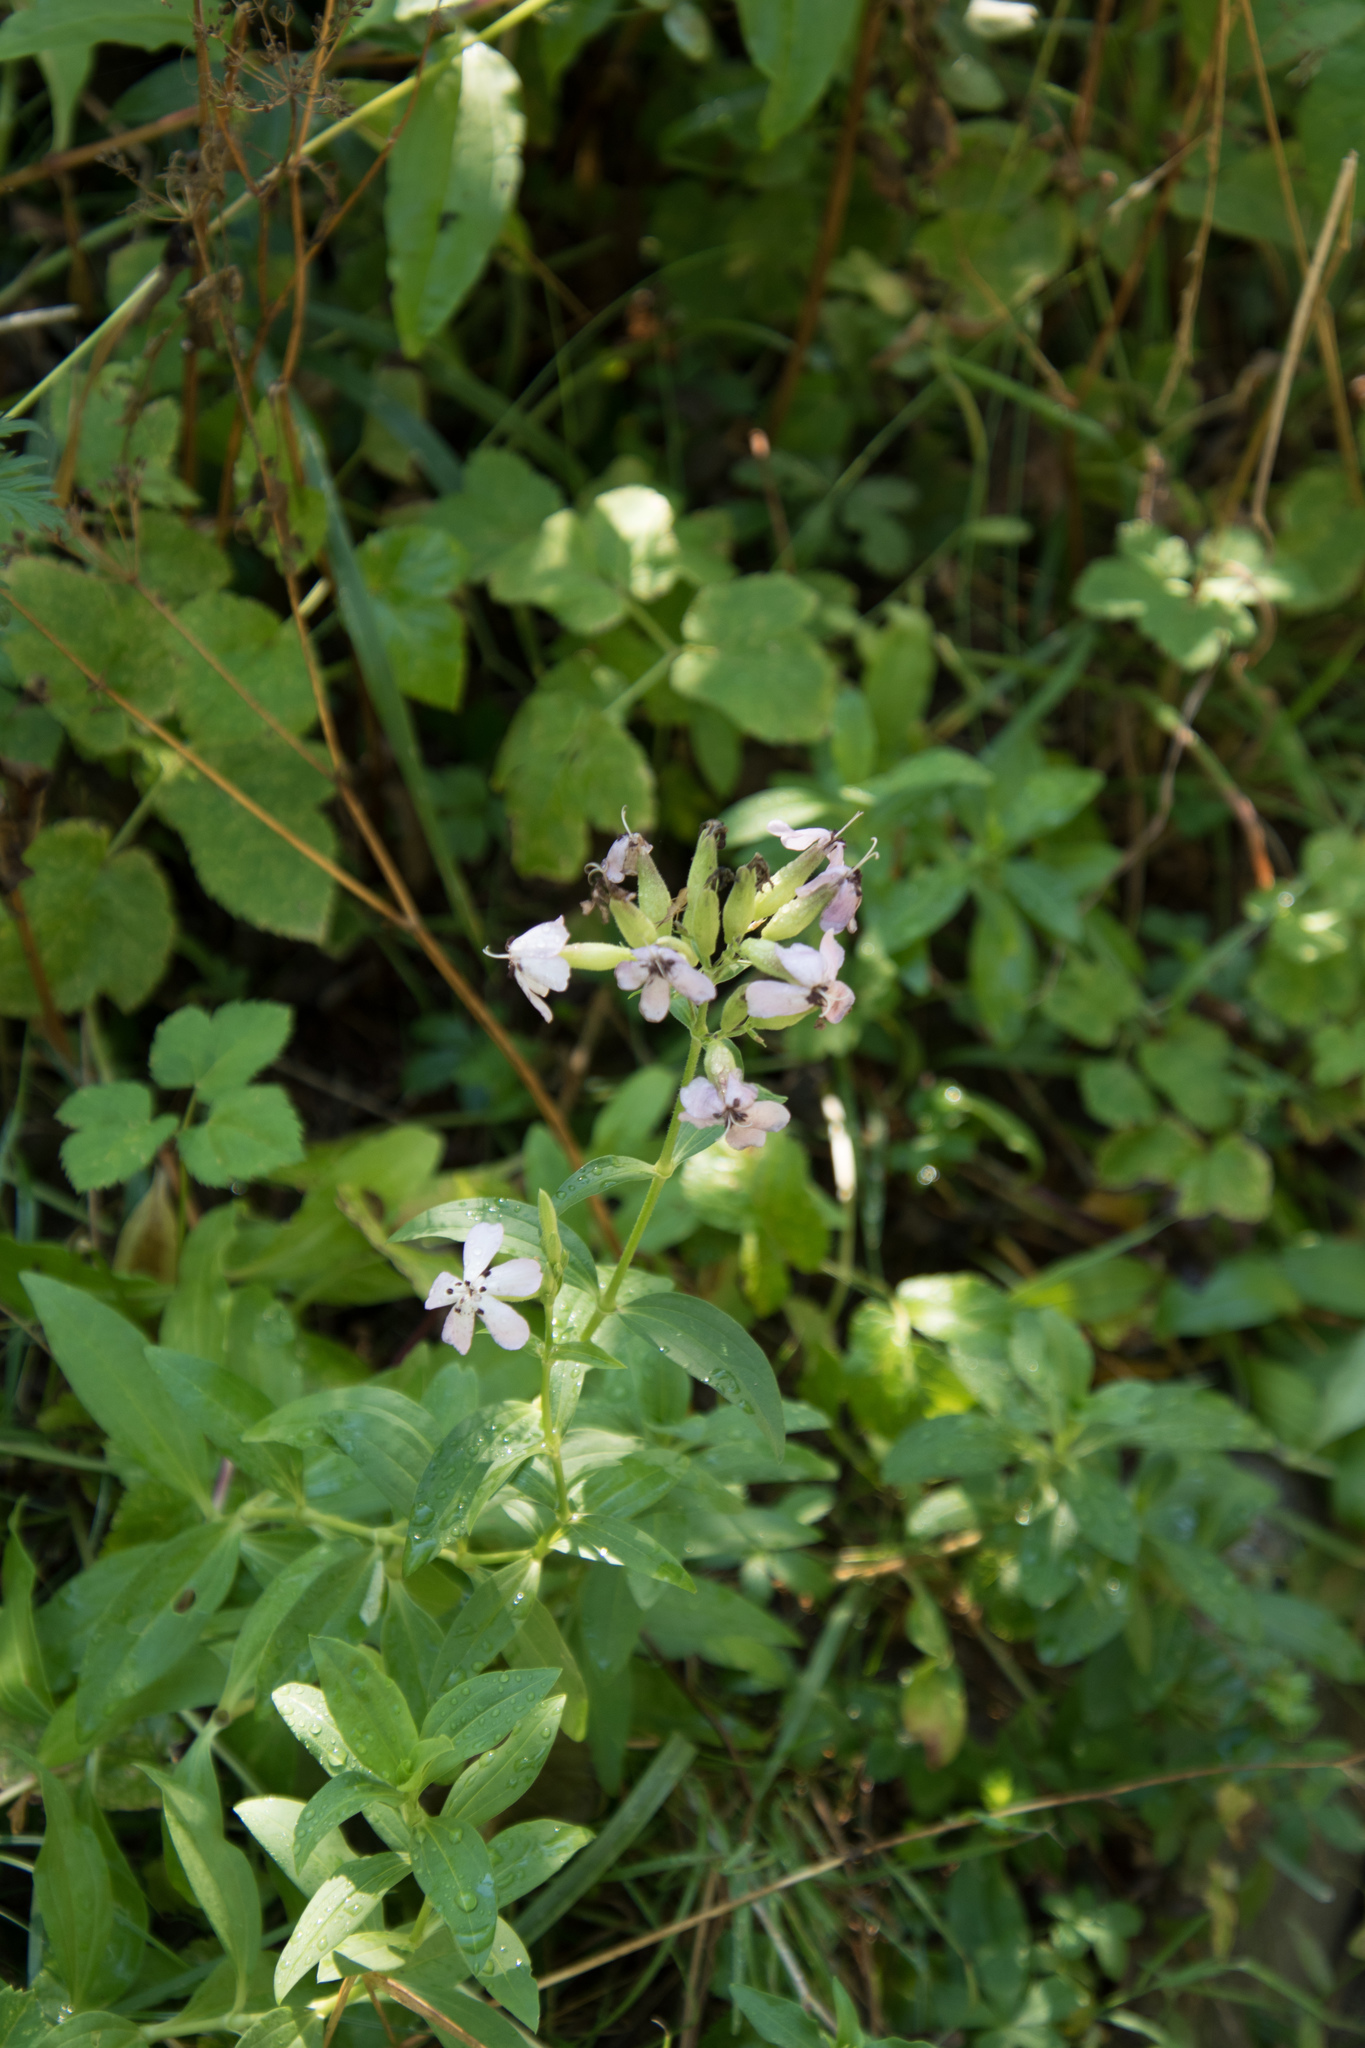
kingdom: Plantae
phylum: Tracheophyta
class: Magnoliopsida
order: Caryophyllales
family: Caryophyllaceae
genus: Saponaria
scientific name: Saponaria officinalis
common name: Soapwort
